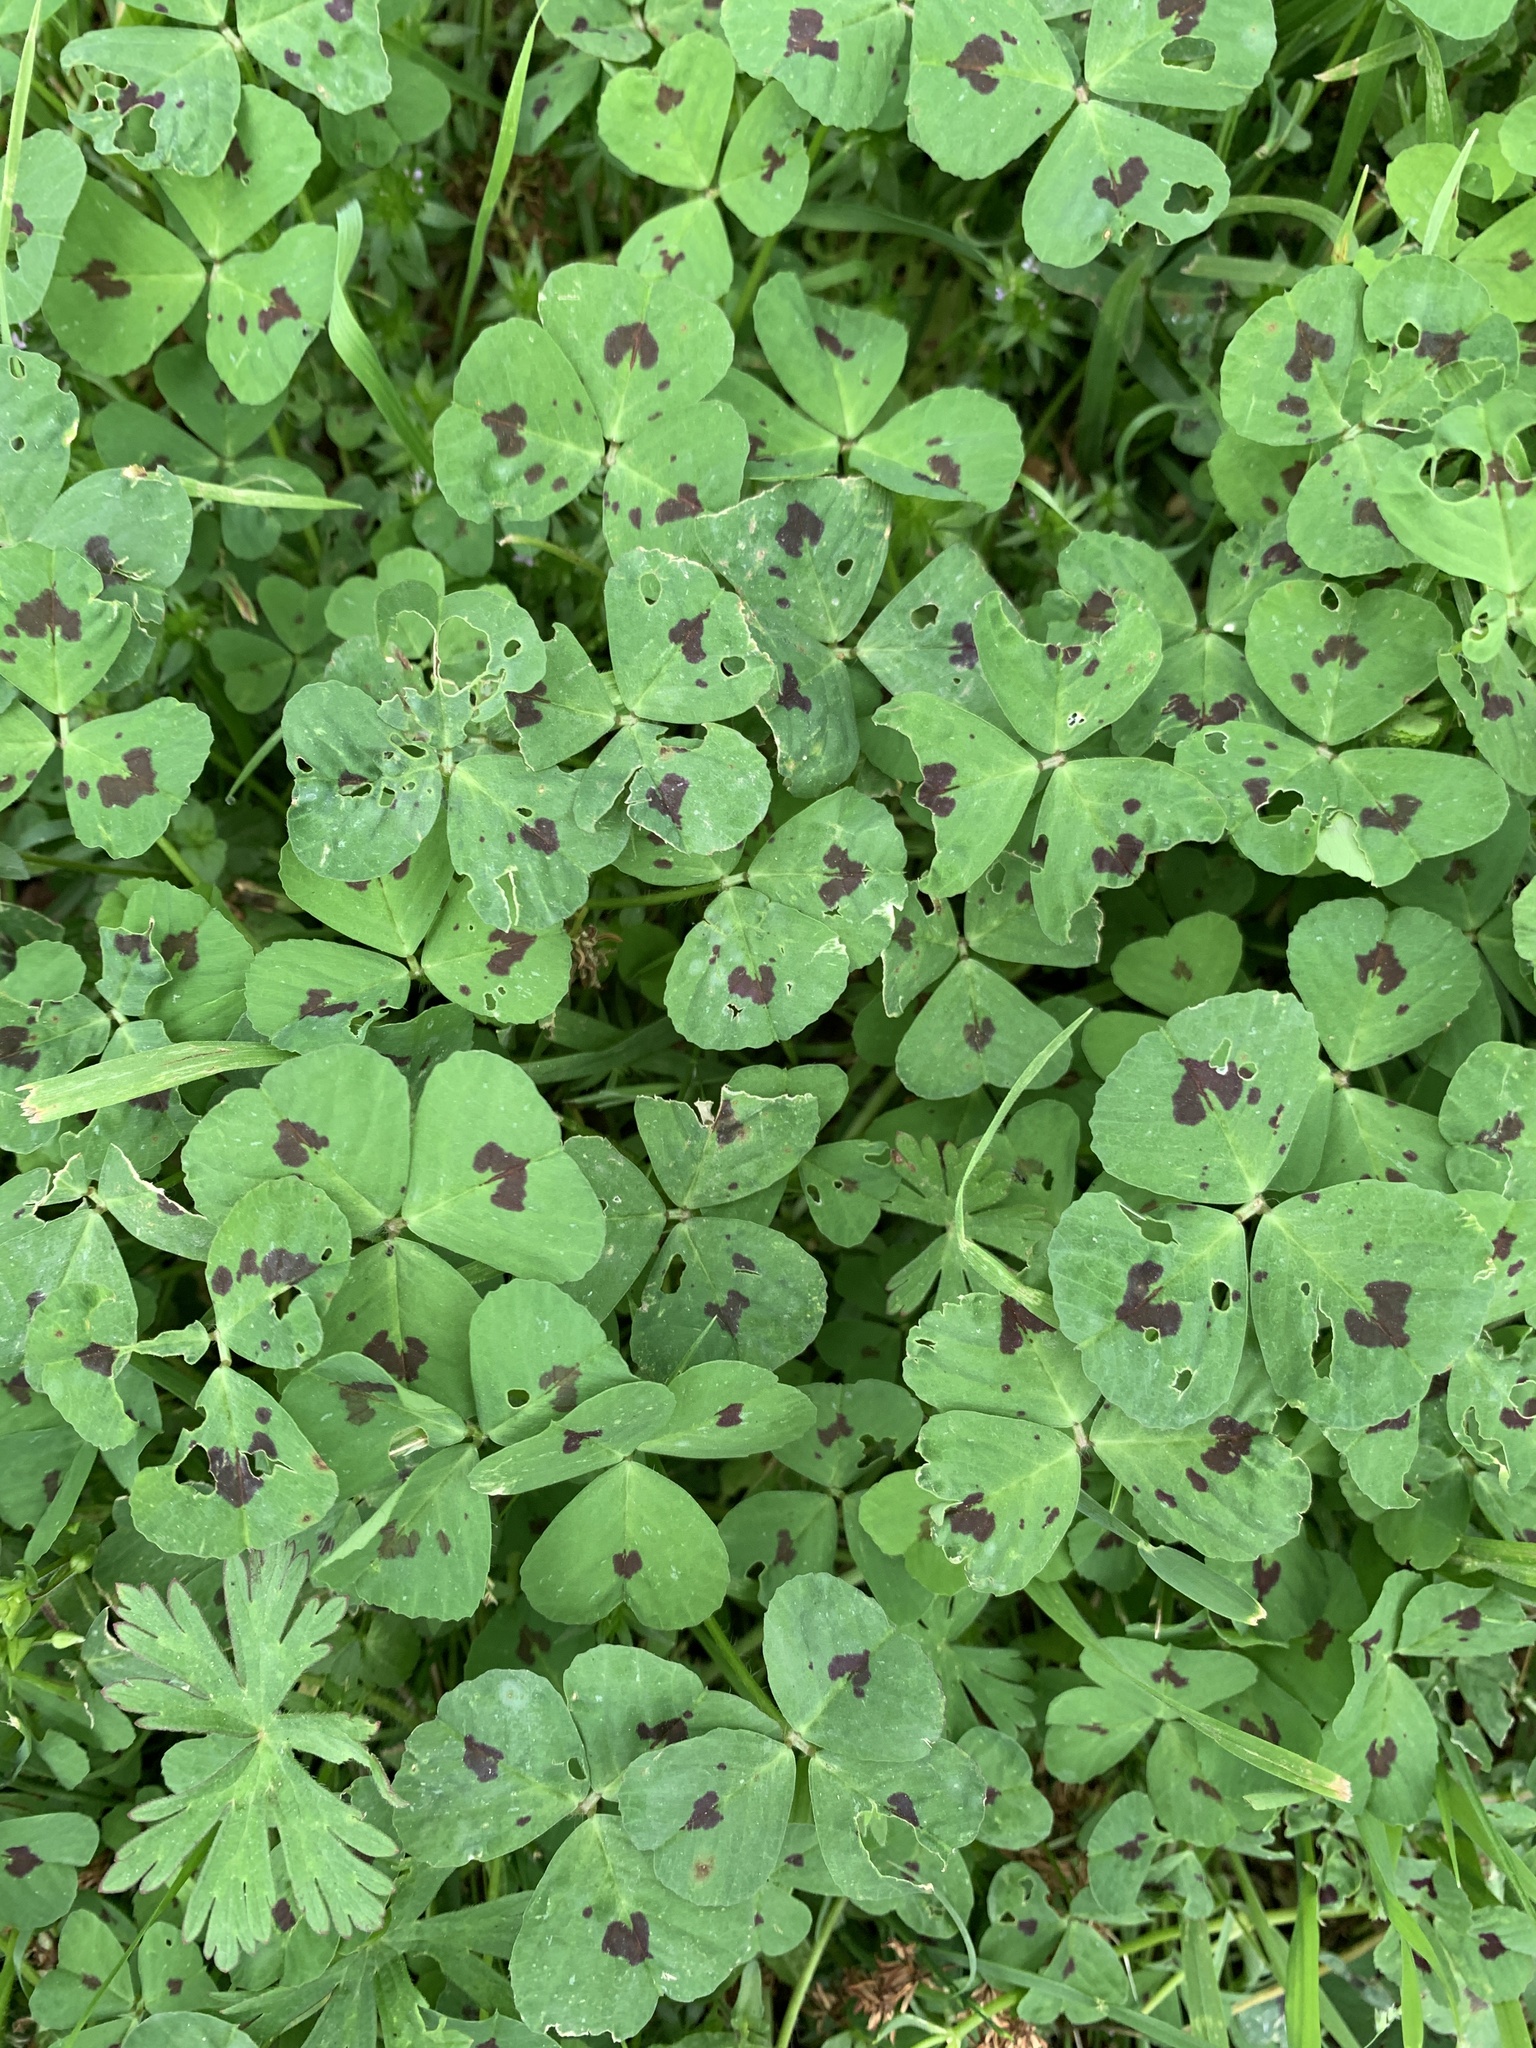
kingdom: Plantae
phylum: Tracheophyta
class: Magnoliopsida
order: Fabales
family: Fabaceae
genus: Medicago
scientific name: Medicago arabica
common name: Spotted medick
